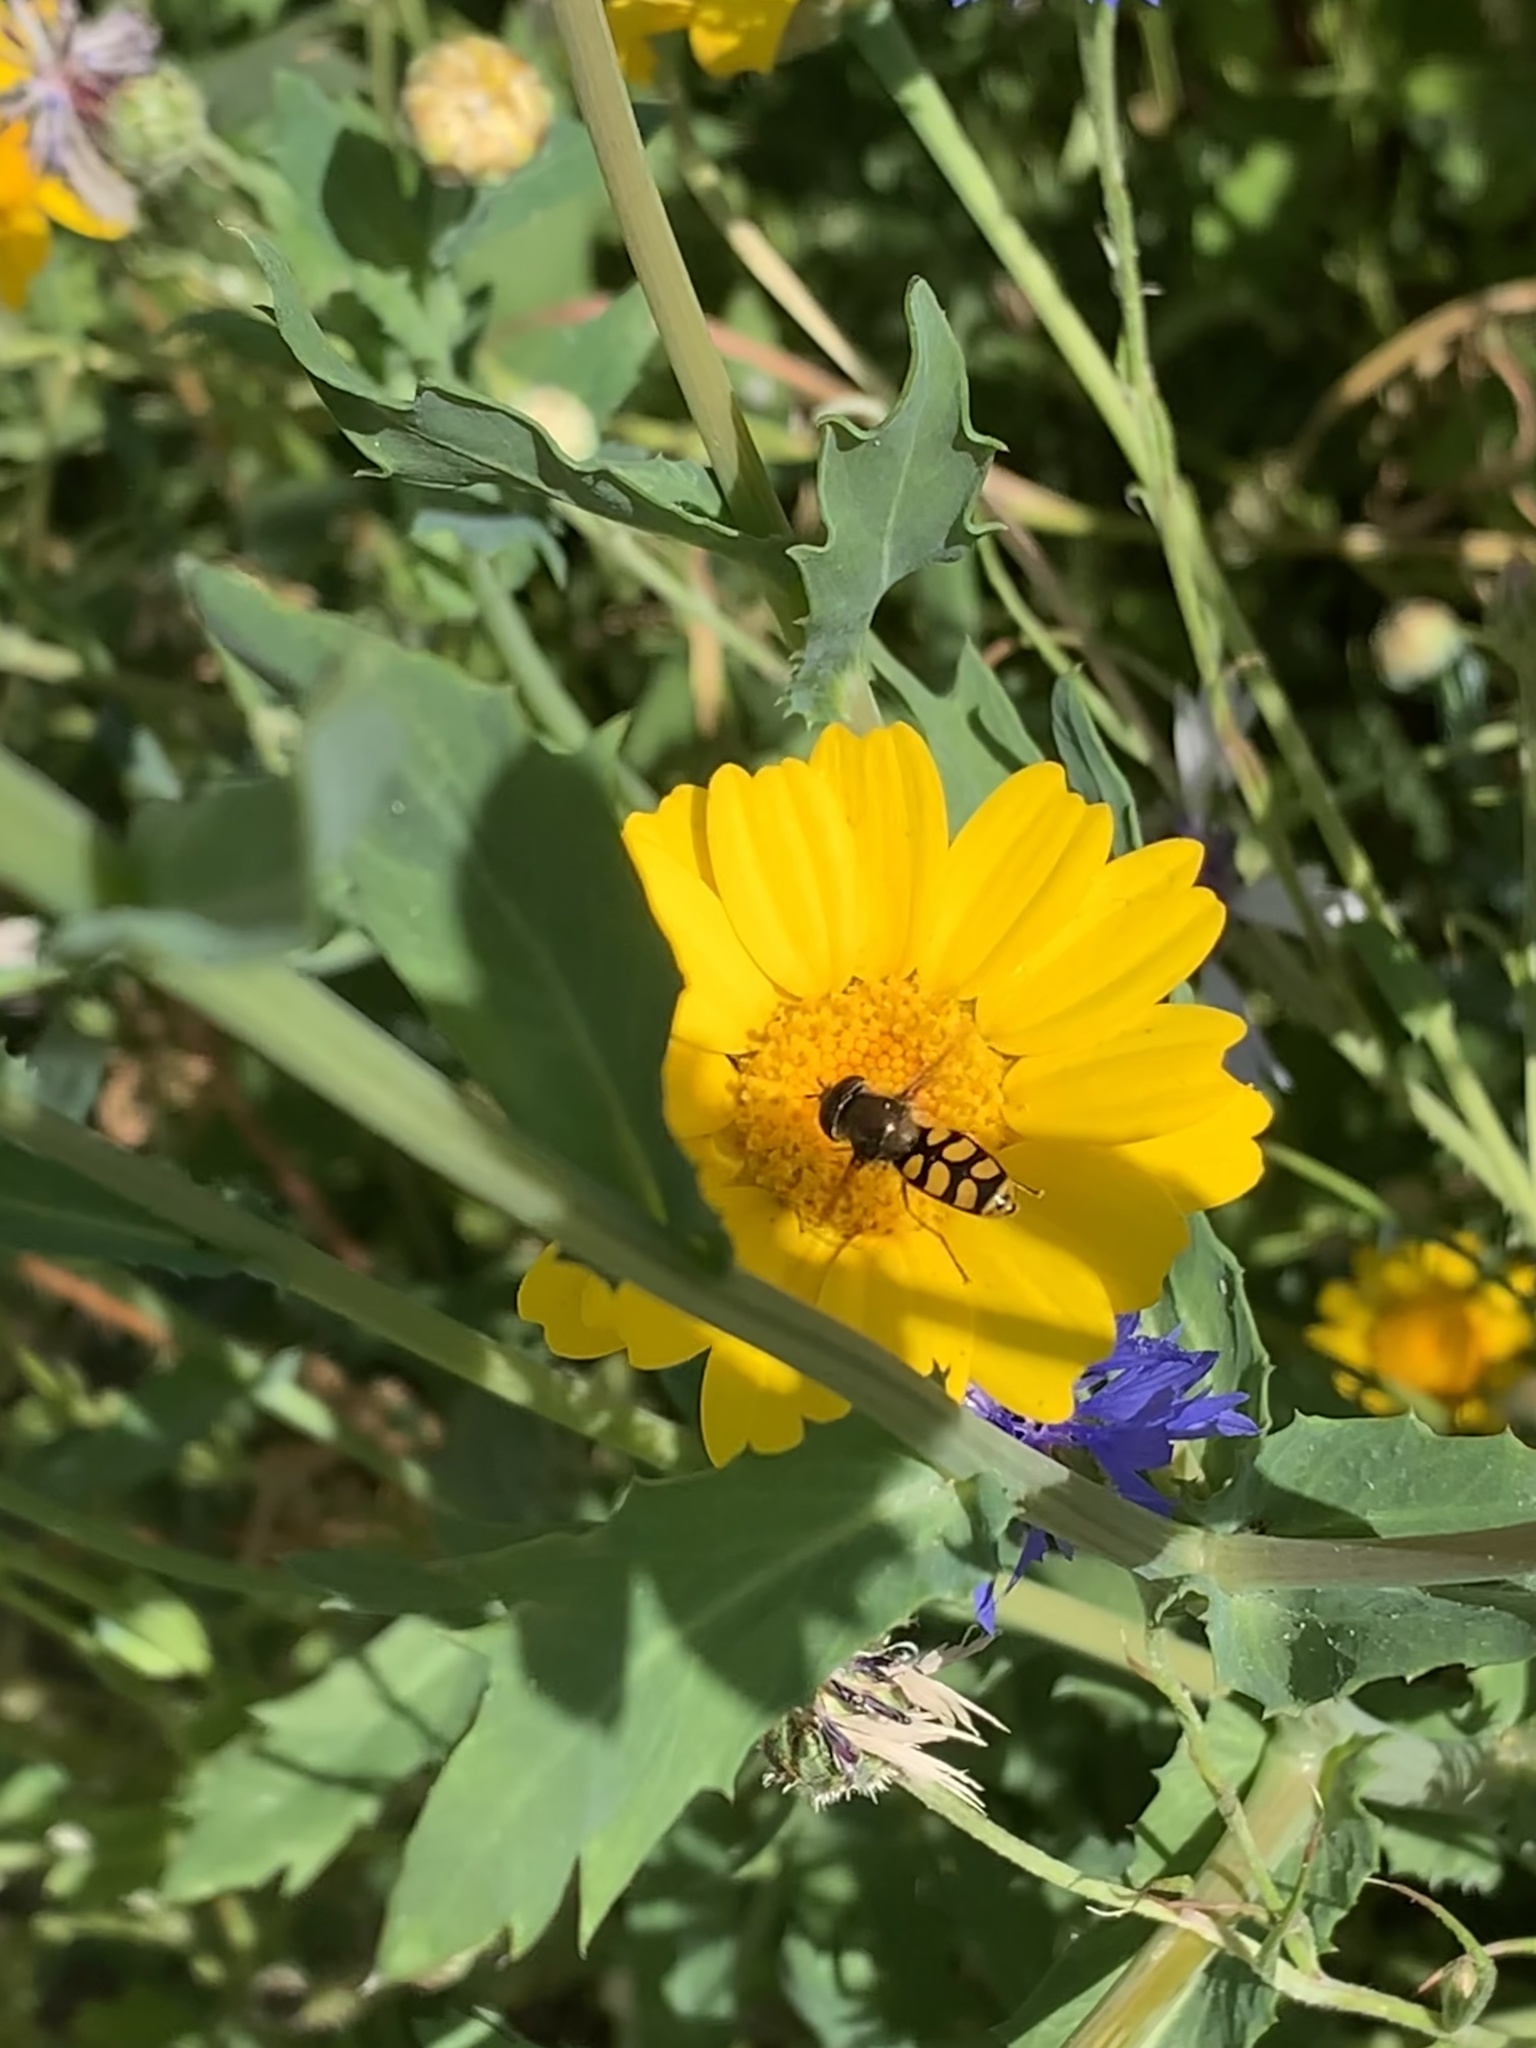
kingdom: Animalia
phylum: Arthropoda
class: Insecta
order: Diptera
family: Syrphidae
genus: Eupeodes
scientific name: Eupeodes
